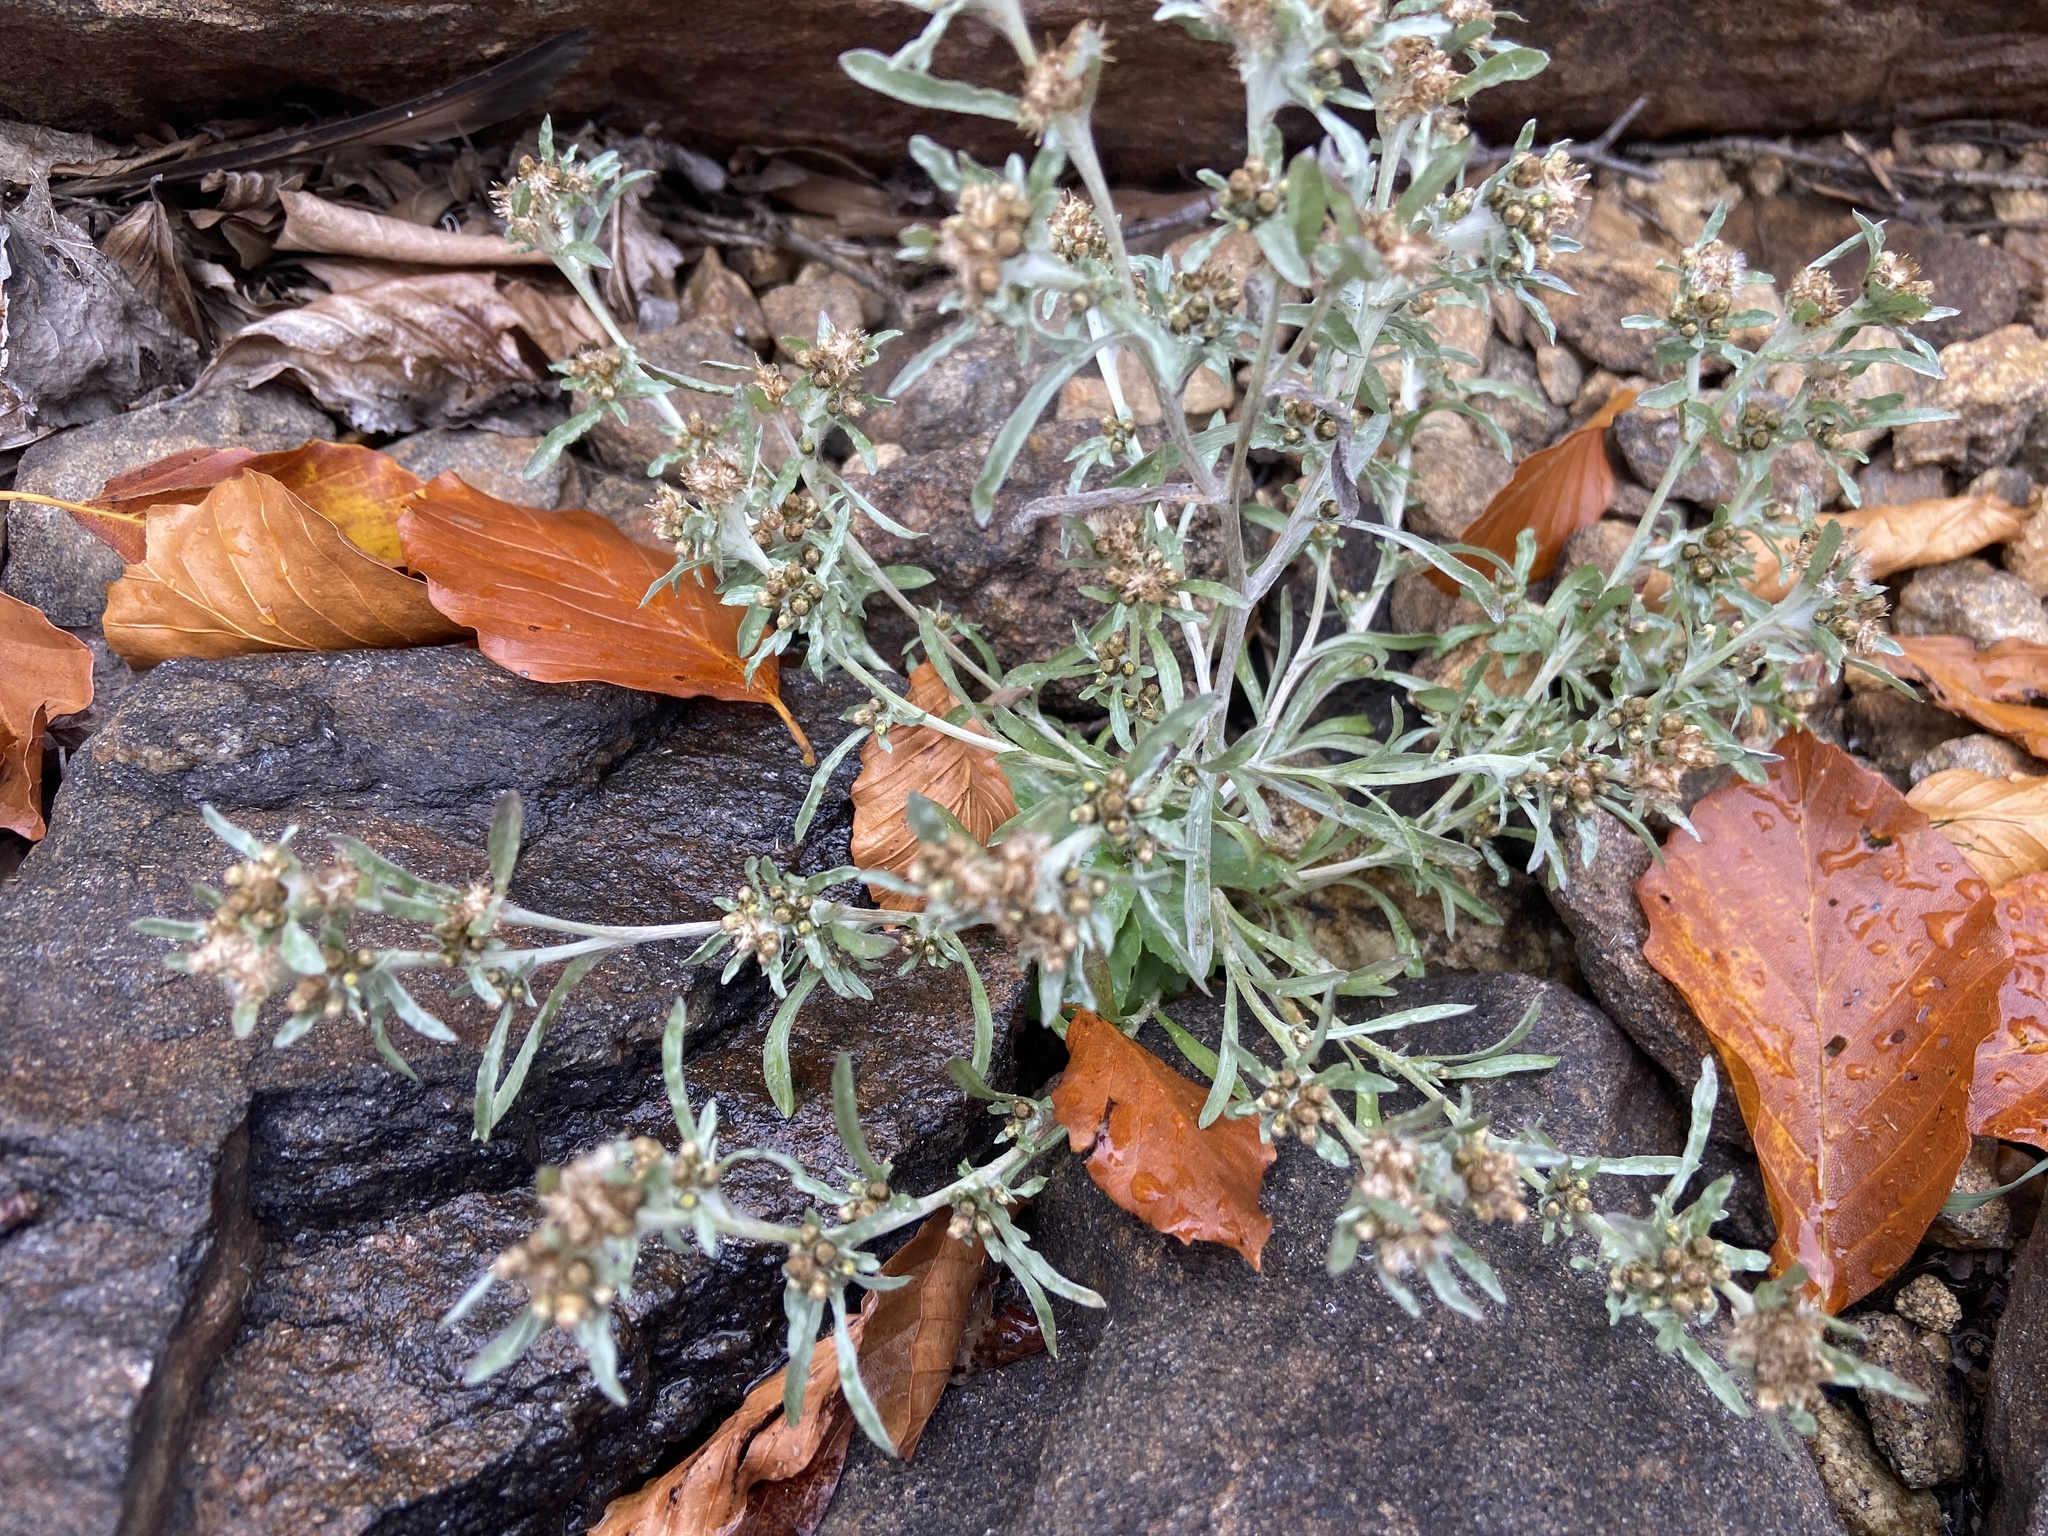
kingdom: Plantae
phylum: Tracheophyta
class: Magnoliopsida
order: Asterales
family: Asteraceae
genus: Gnaphalium
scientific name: Gnaphalium uliginosum
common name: Marsh cudweed
